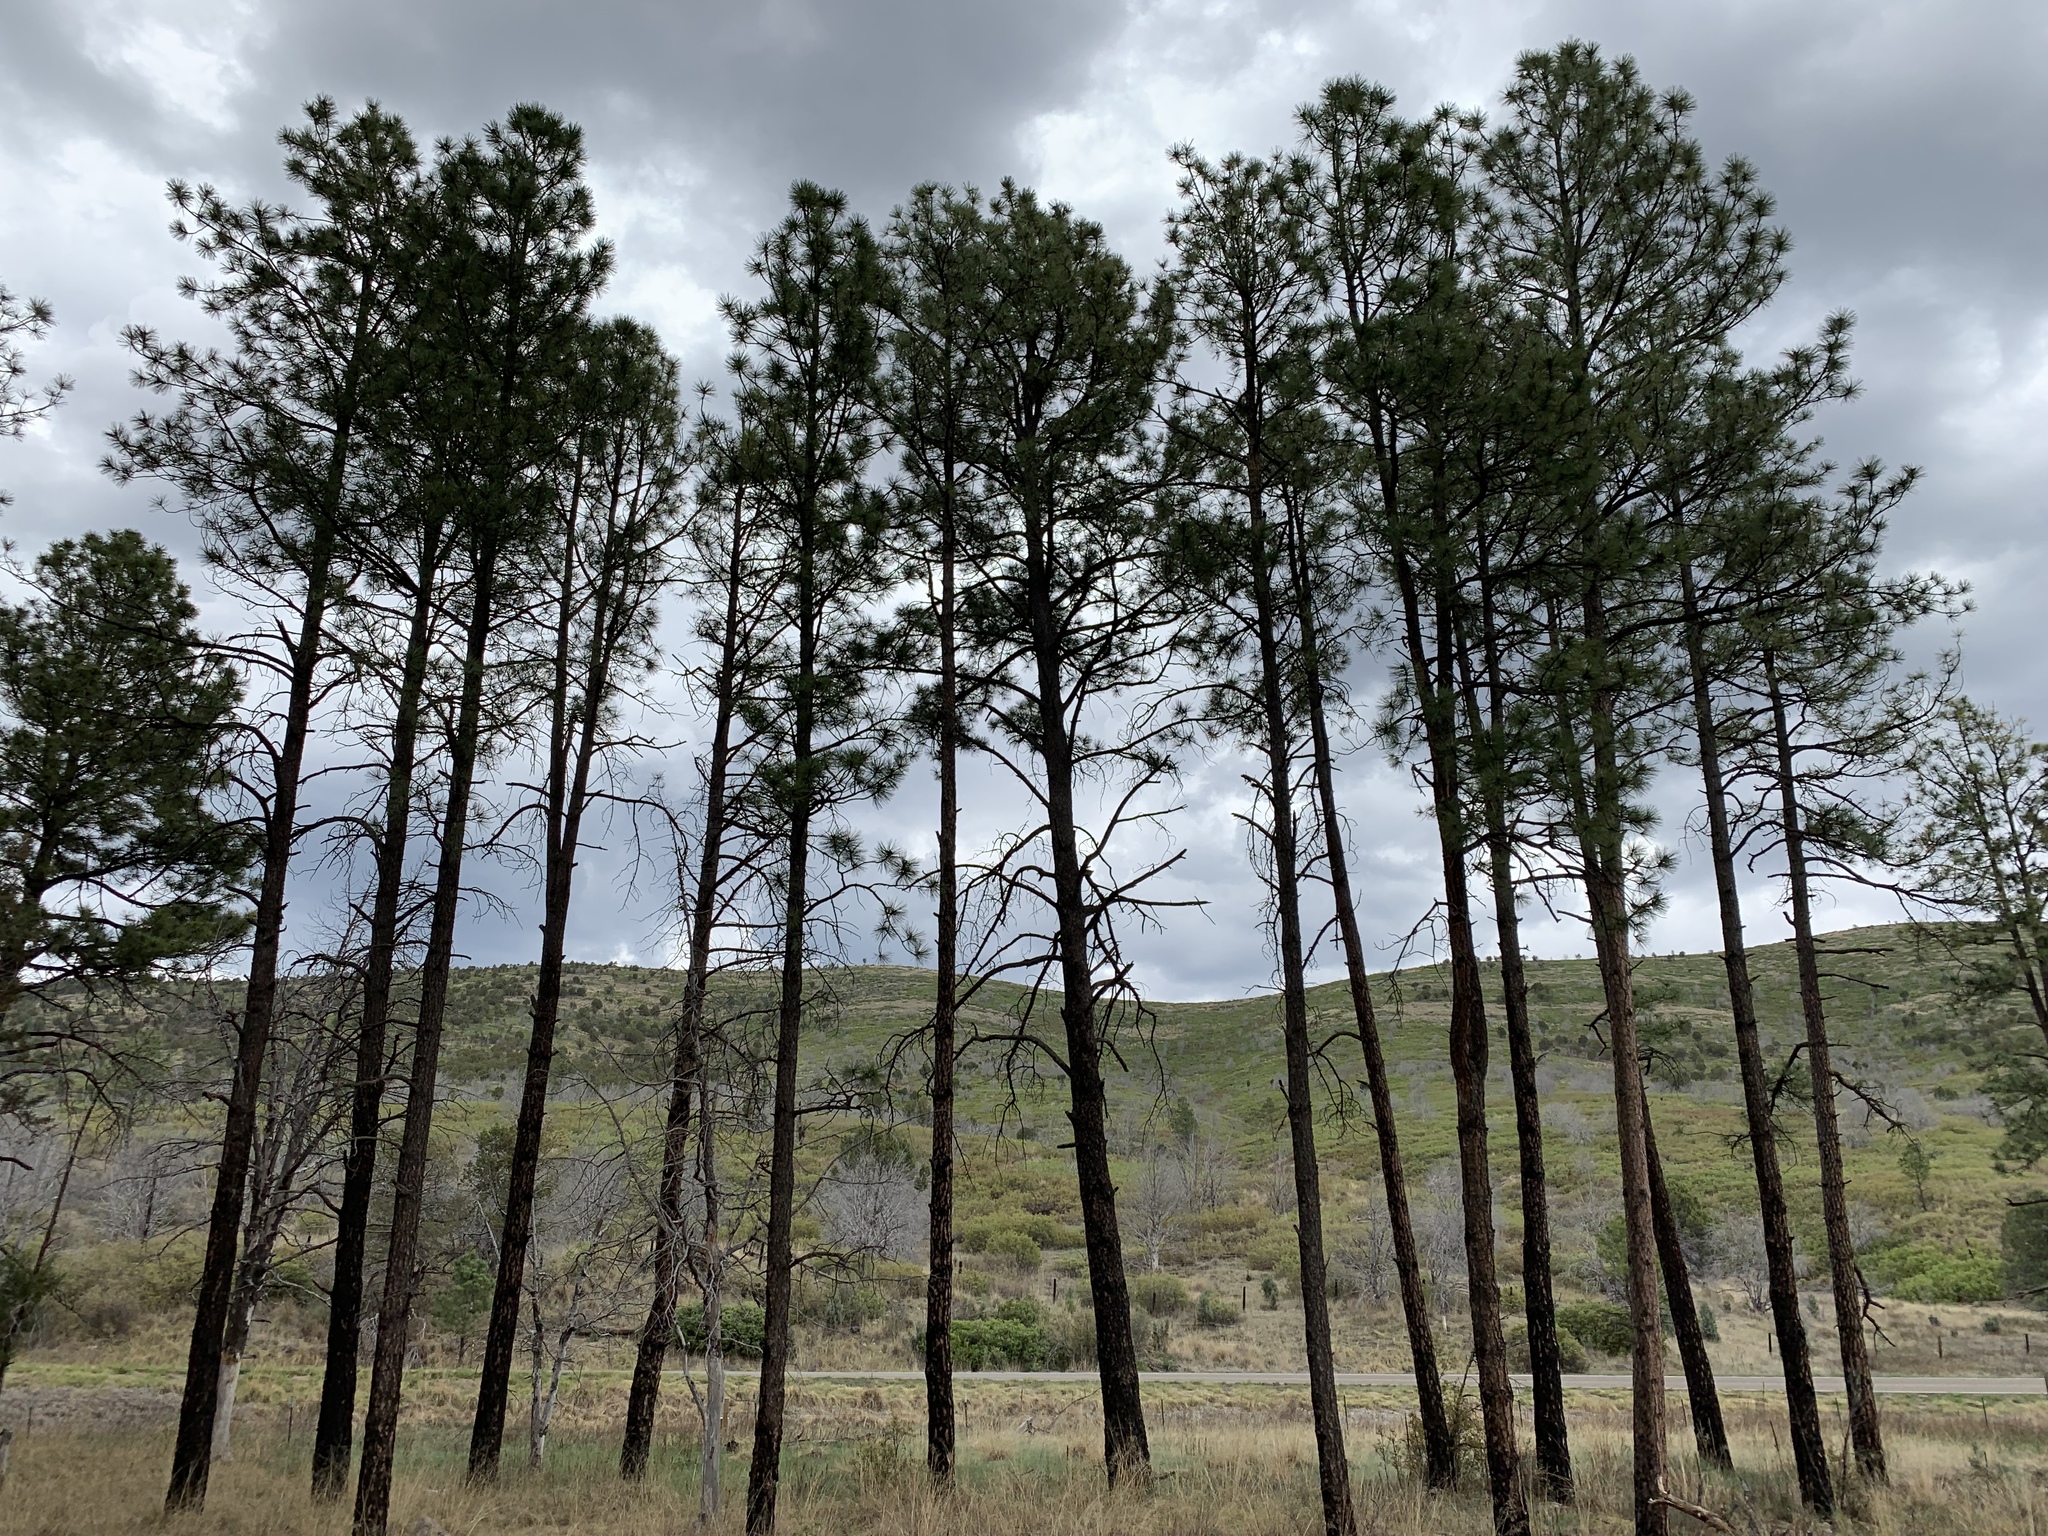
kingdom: Plantae
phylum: Tracheophyta
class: Pinopsida
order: Pinales
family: Pinaceae
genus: Pinus
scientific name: Pinus ponderosa
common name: Western yellow-pine
